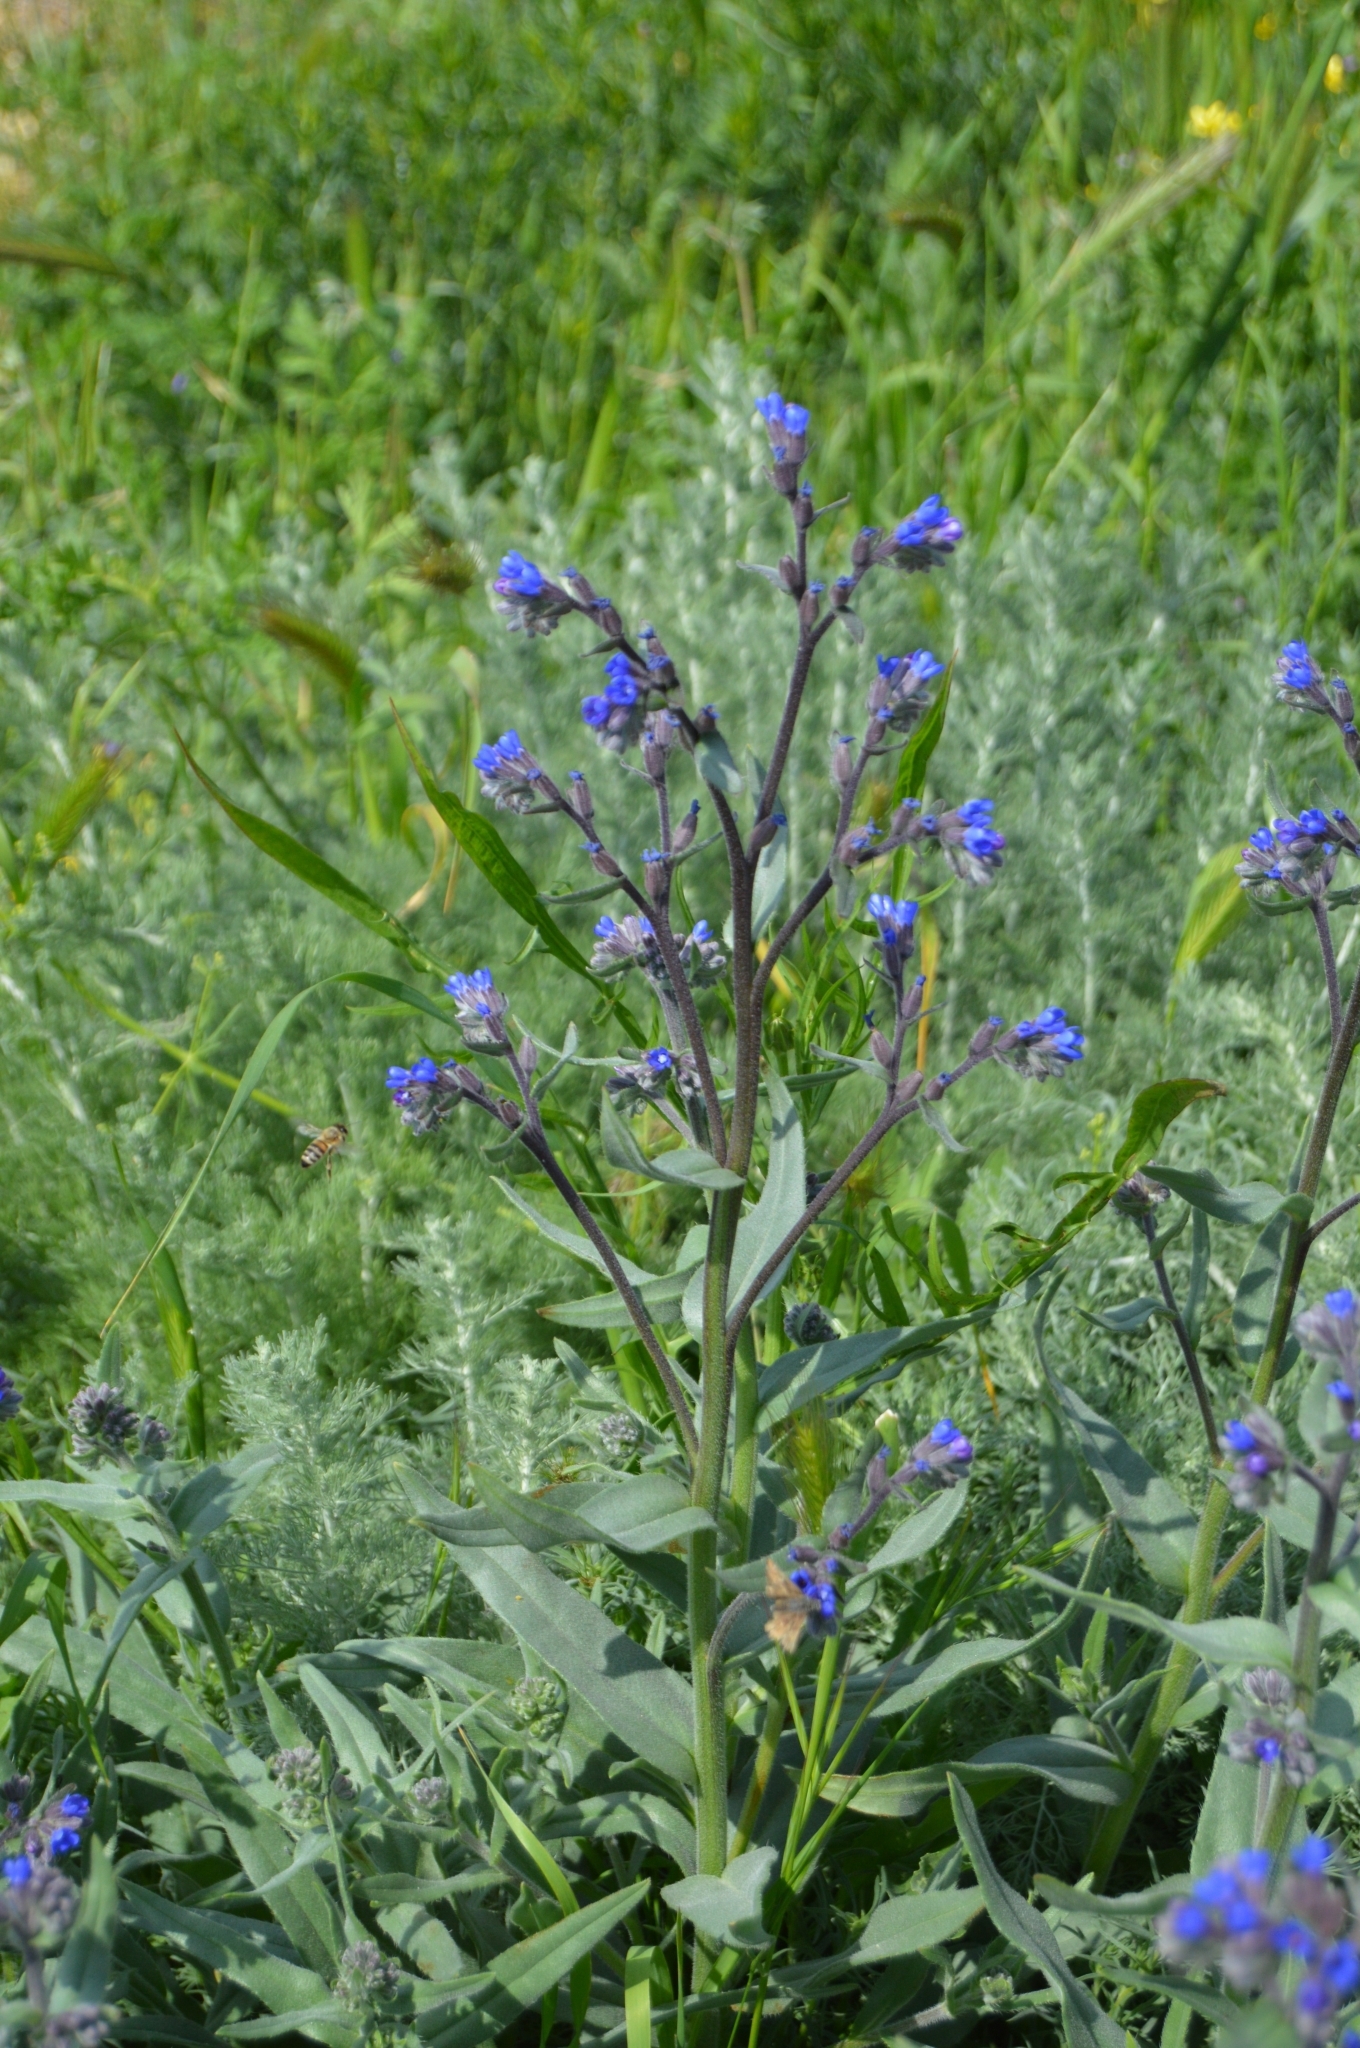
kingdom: Plantae
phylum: Tracheophyta
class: Magnoliopsida
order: Boraginales
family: Boraginaceae
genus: Anchusa
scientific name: Anchusa leptophylla
